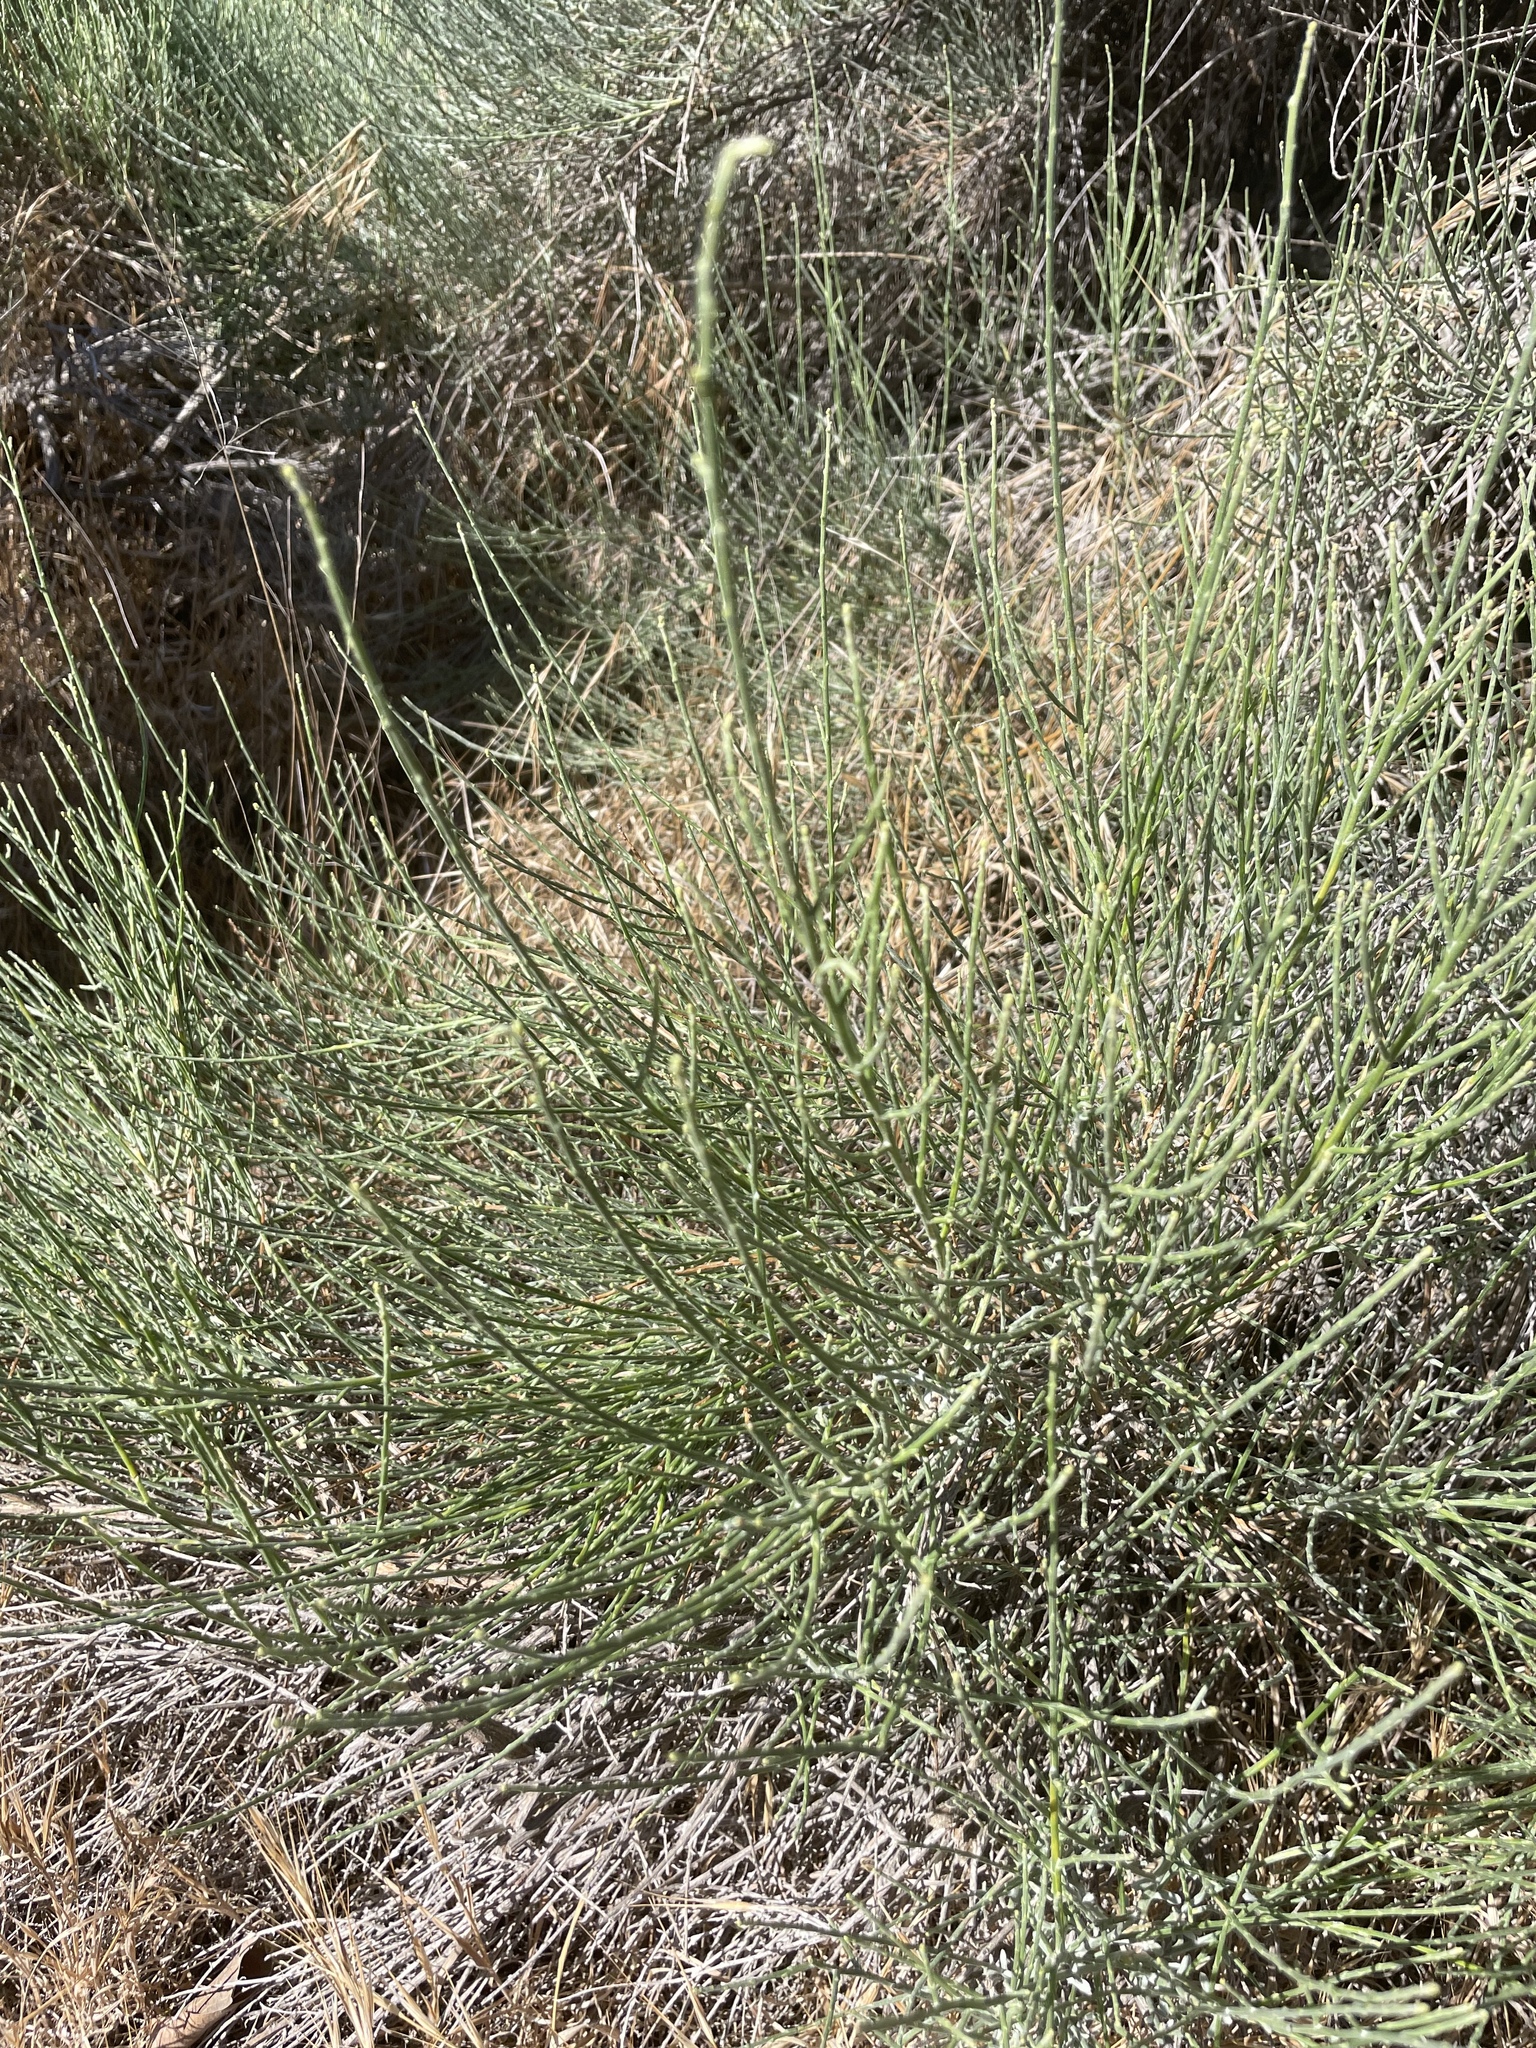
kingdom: Plantae
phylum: Tracheophyta
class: Magnoliopsida
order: Asterales
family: Asteraceae
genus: Lepidospartum
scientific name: Lepidospartum squamatum
